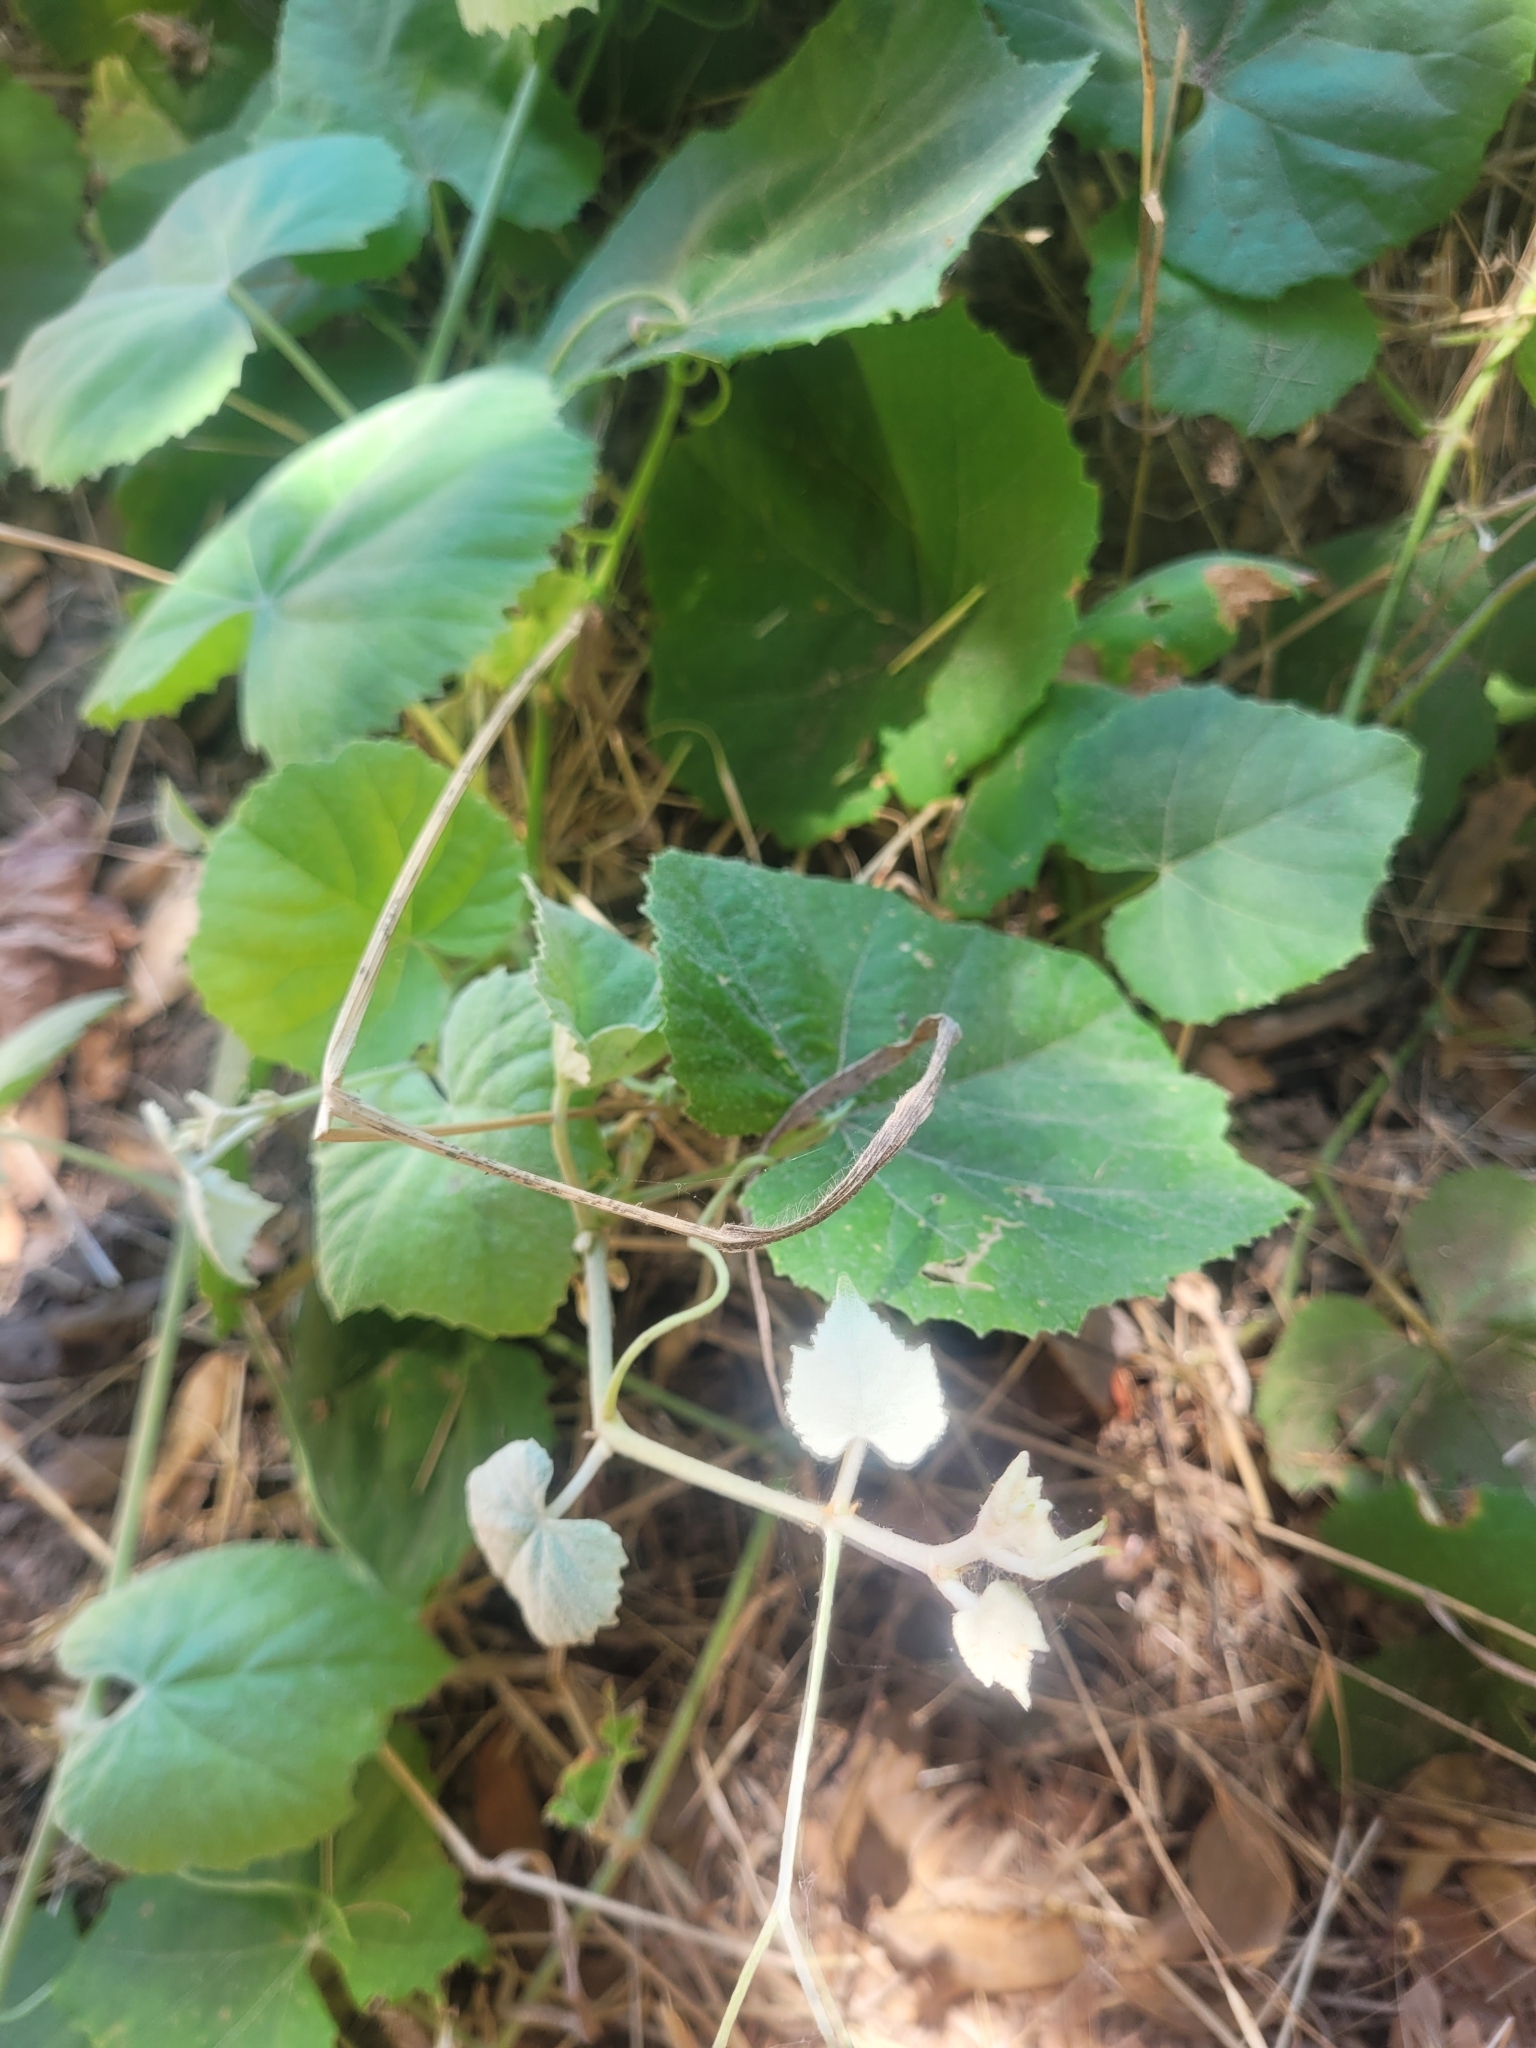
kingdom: Plantae
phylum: Tracheophyta
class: Magnoliopsida
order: Vitales
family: Vitaceae
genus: Vitis
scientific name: Vitis girdiana
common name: Desert wild grape
